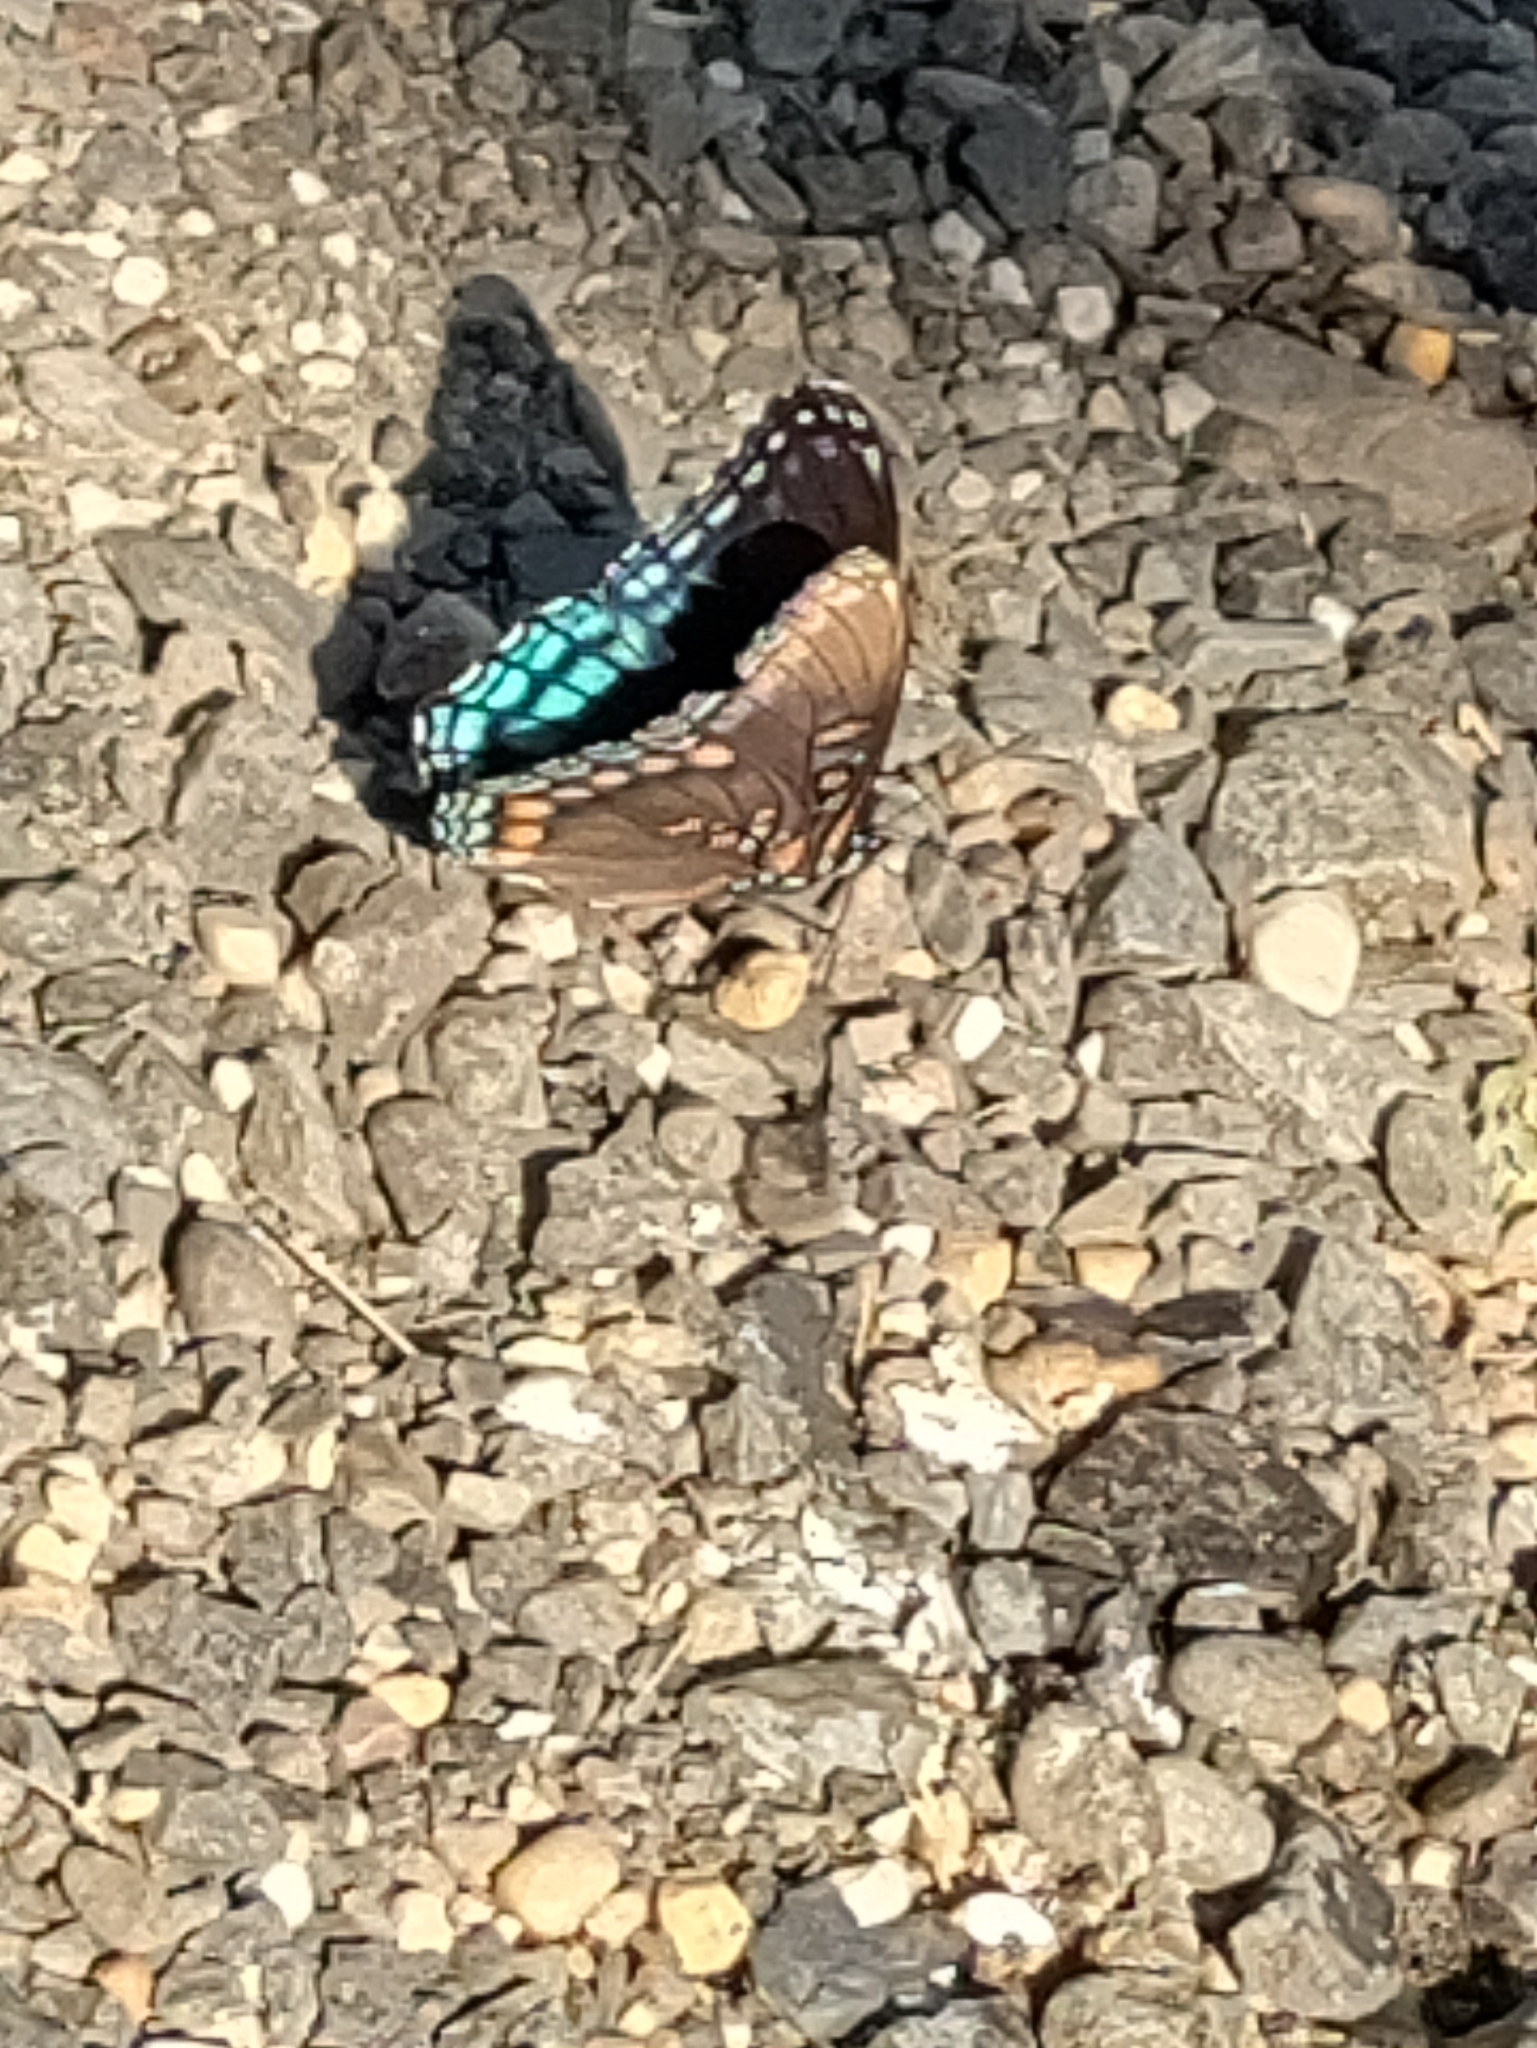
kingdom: Animalia
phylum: Arthropoda
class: Insecta
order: Lepidoptera
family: Nymphalidae
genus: Limenitis
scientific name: Limenitis astyanax
